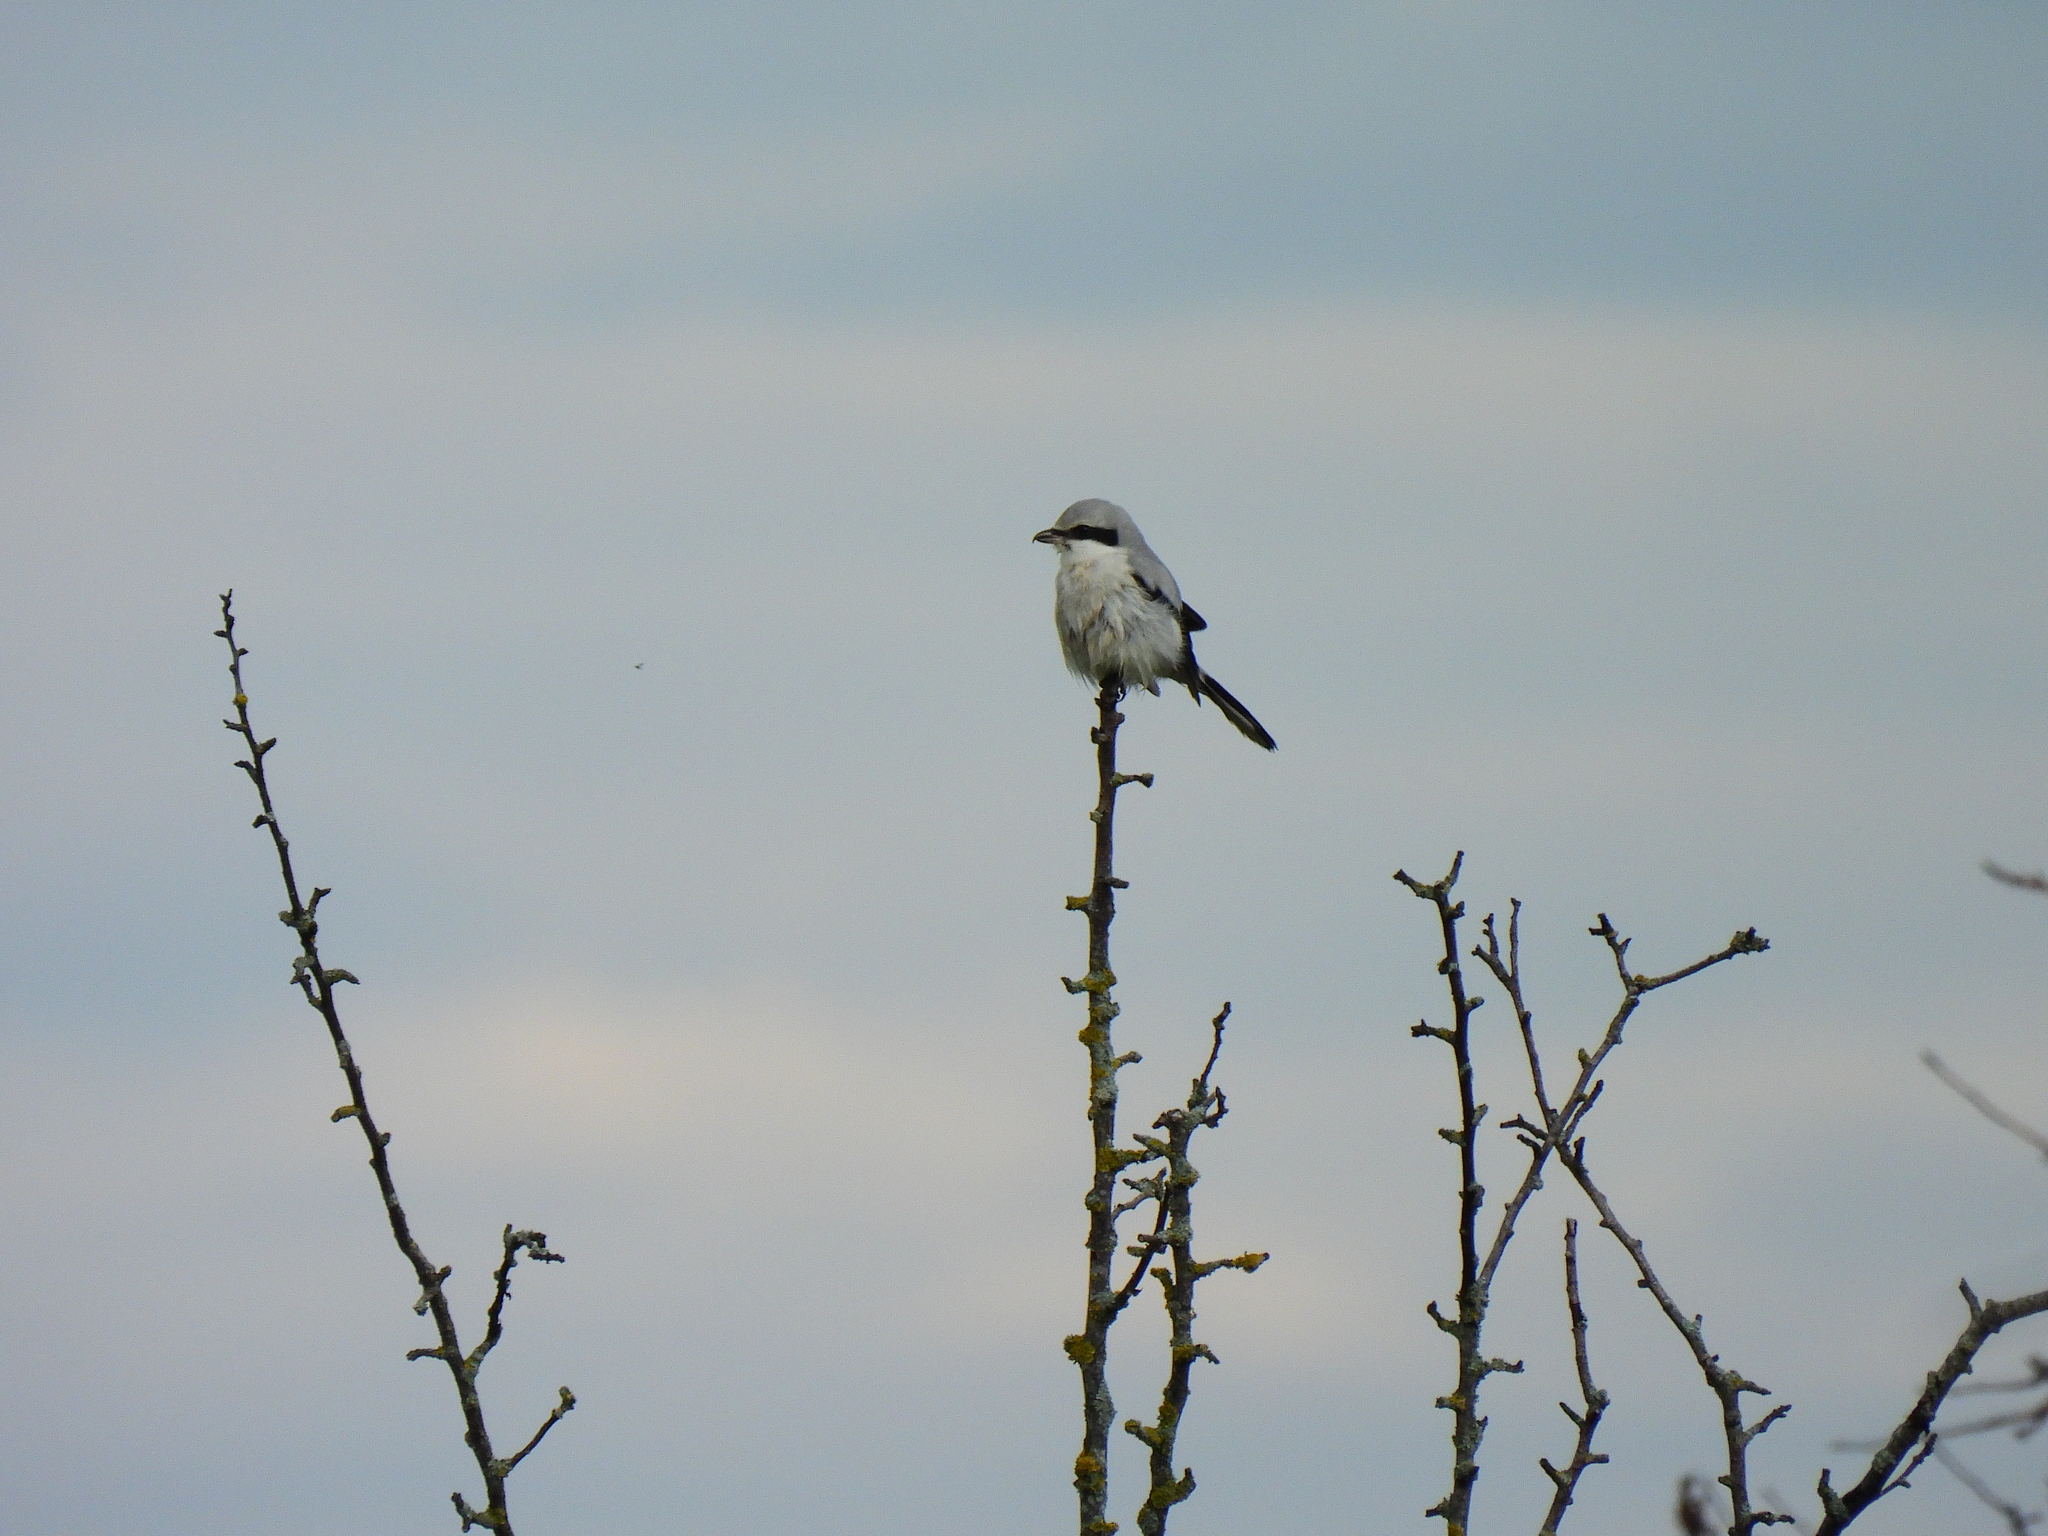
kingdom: Animalia
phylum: Chordata
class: Aves
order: Passeriformes
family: Laniidae
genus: Lanius
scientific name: Lanius excubitor
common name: Great grey shrike
